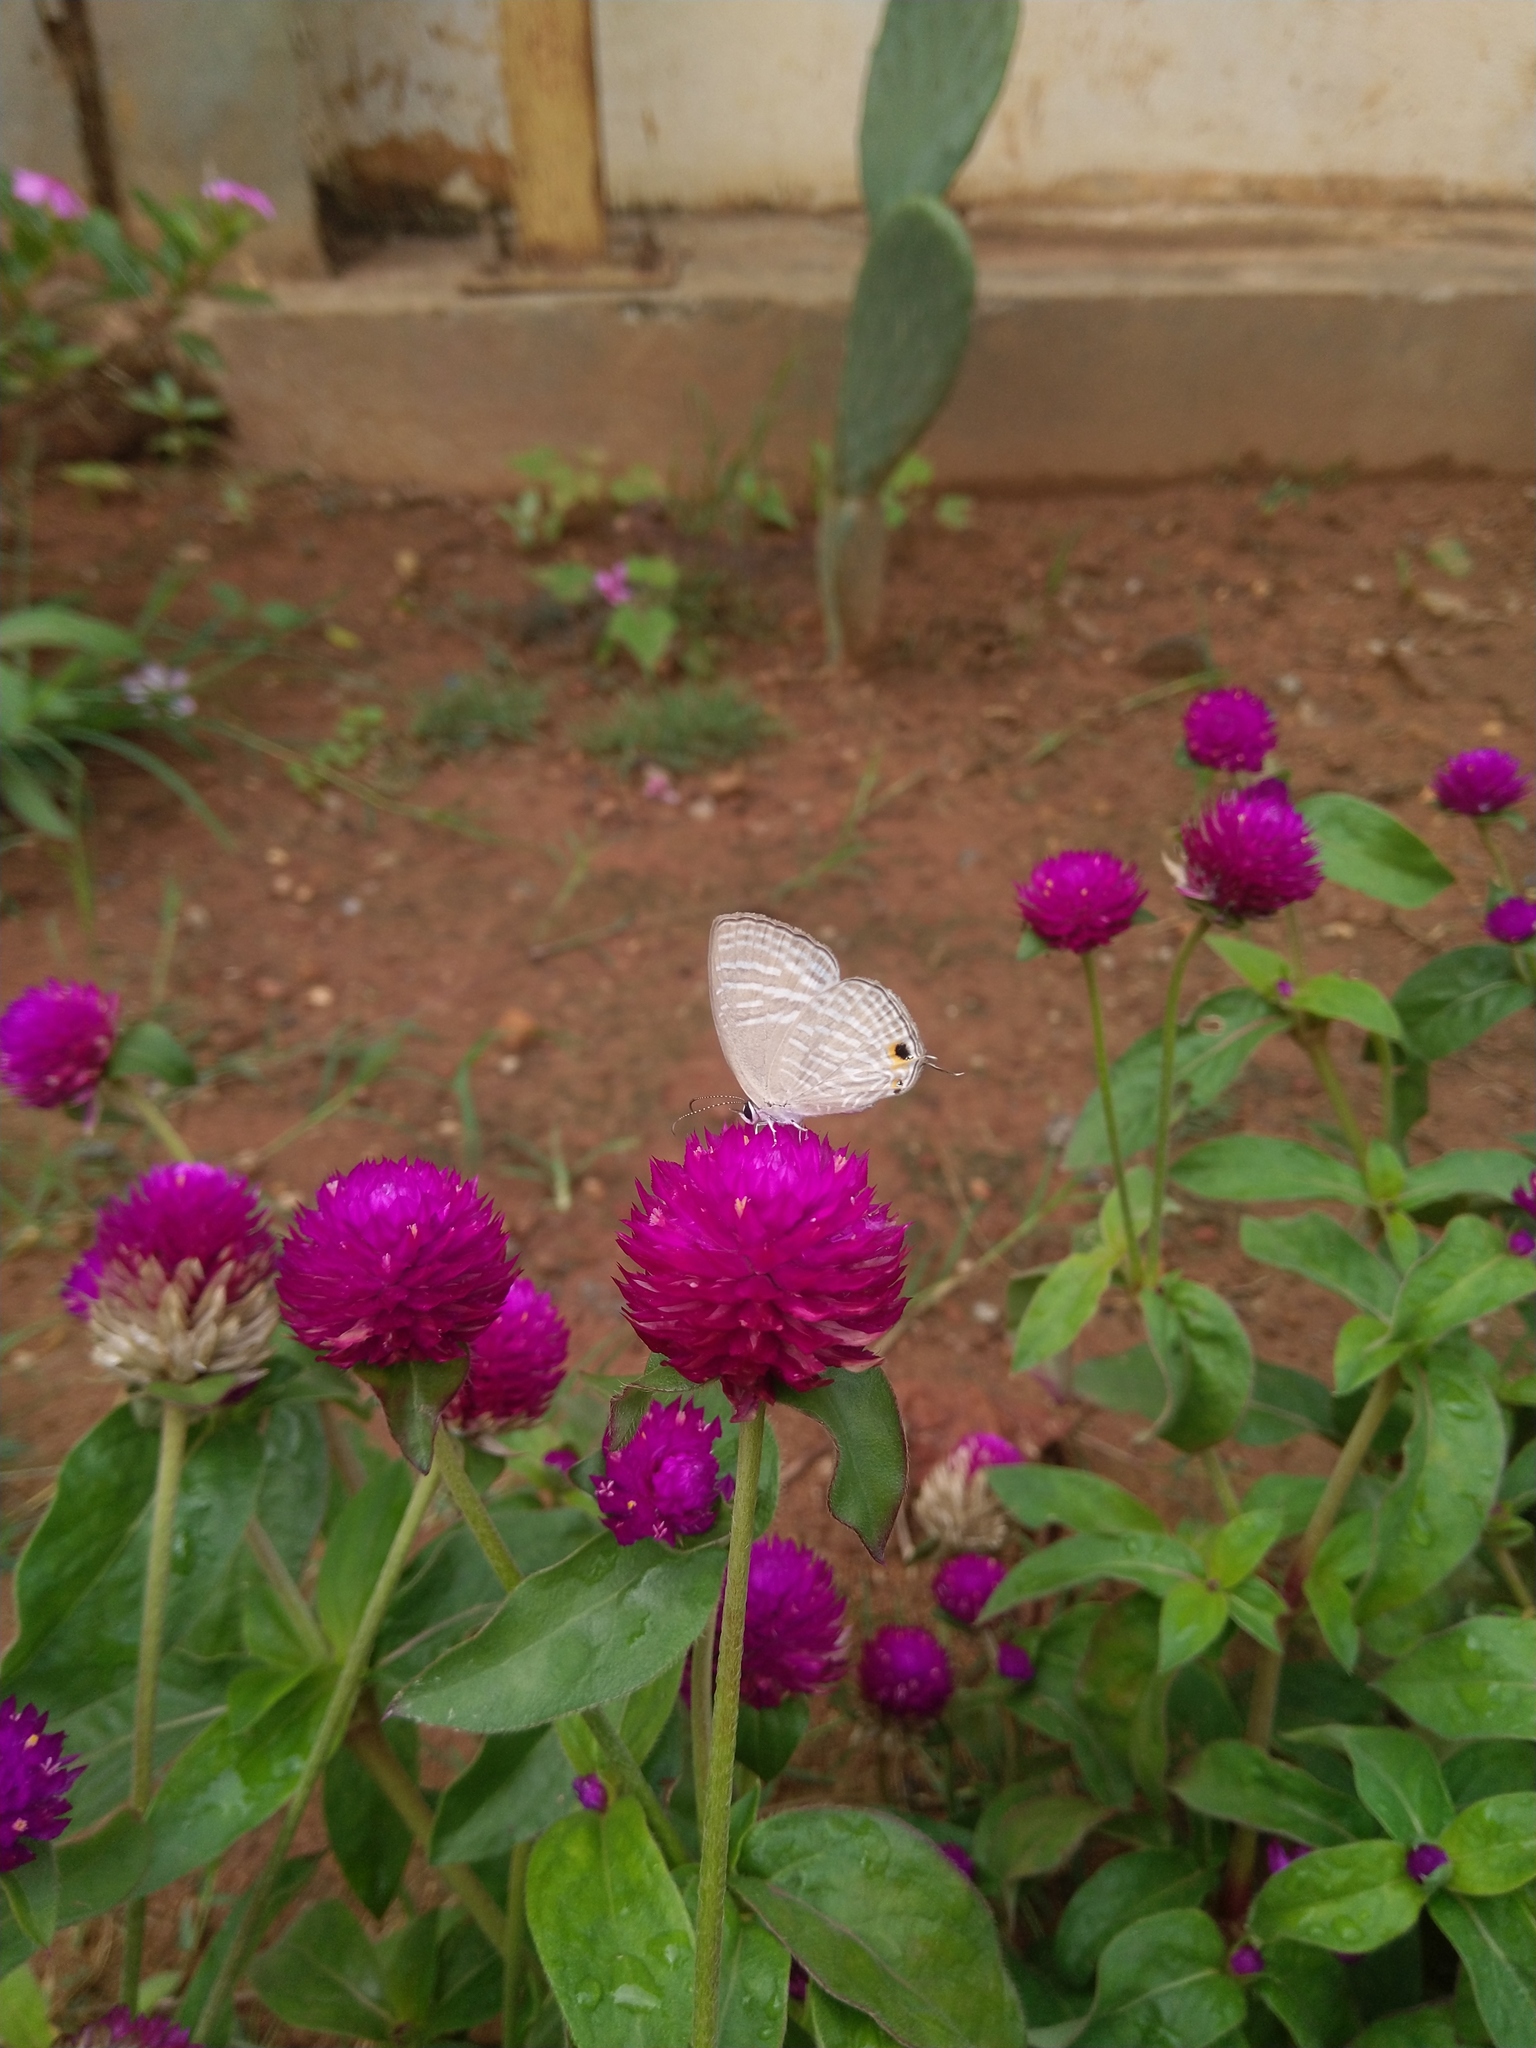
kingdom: Animalia
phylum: Arthropoda
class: Insecta
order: Lepidoptera
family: Lycaenidae
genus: Jamides
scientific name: Jamides celeno
